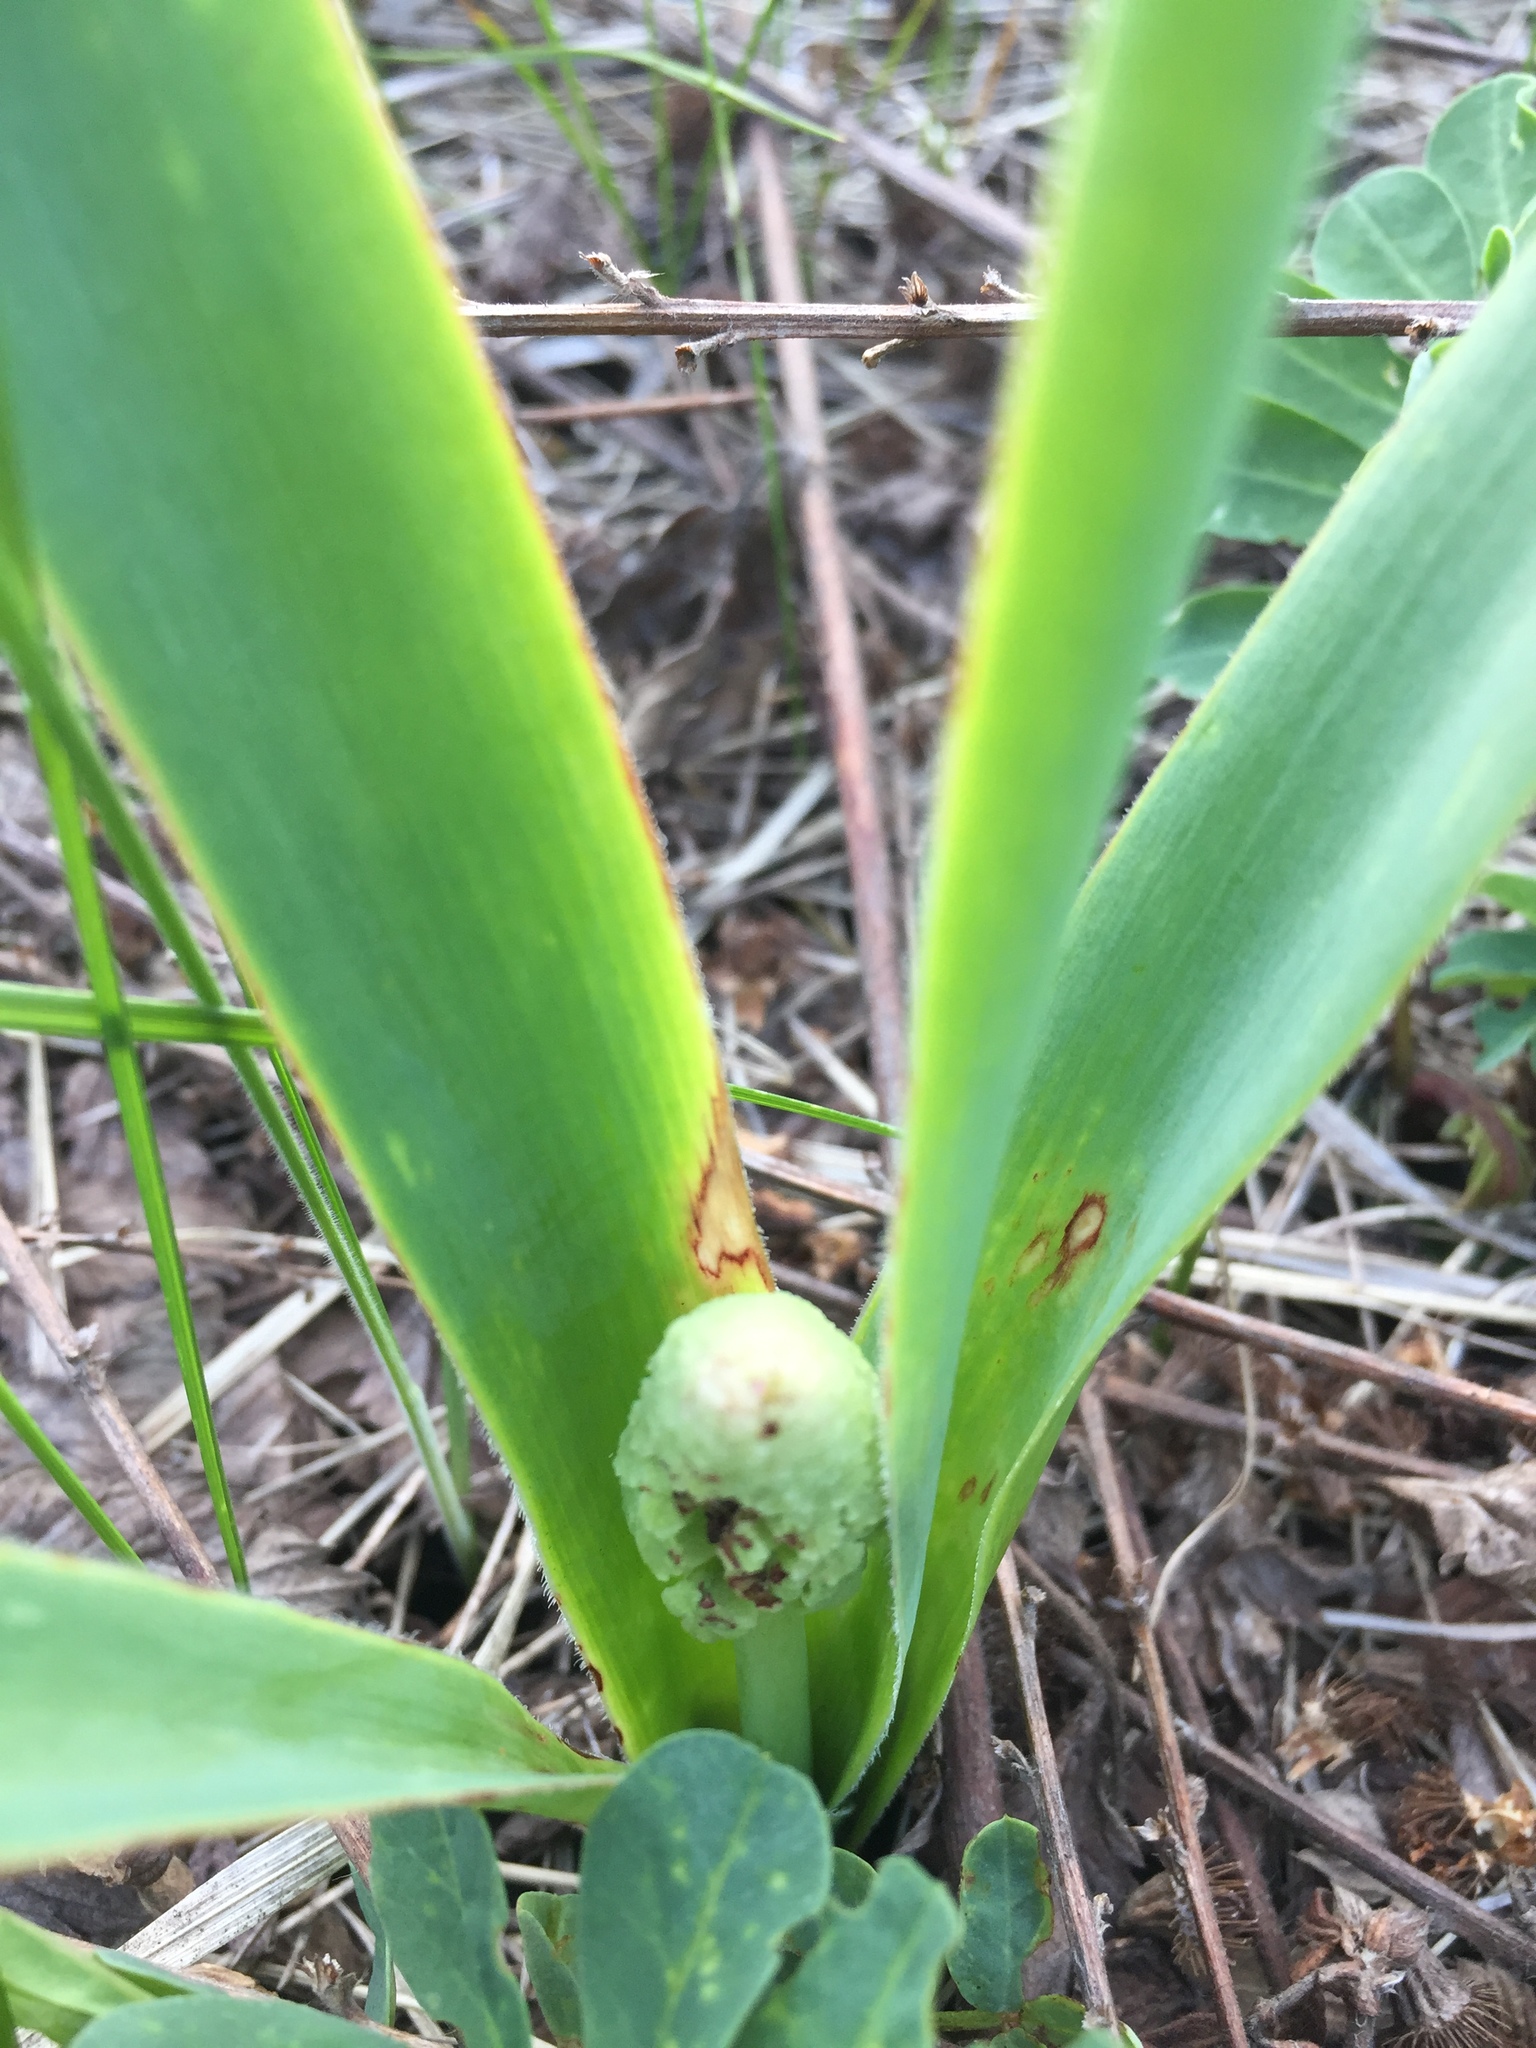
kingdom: Plantae
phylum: Tracheophyta
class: Liliopsida
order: Asparagales
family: Asparagaceae
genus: Bellevalia
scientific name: Bellevalia speciosa
